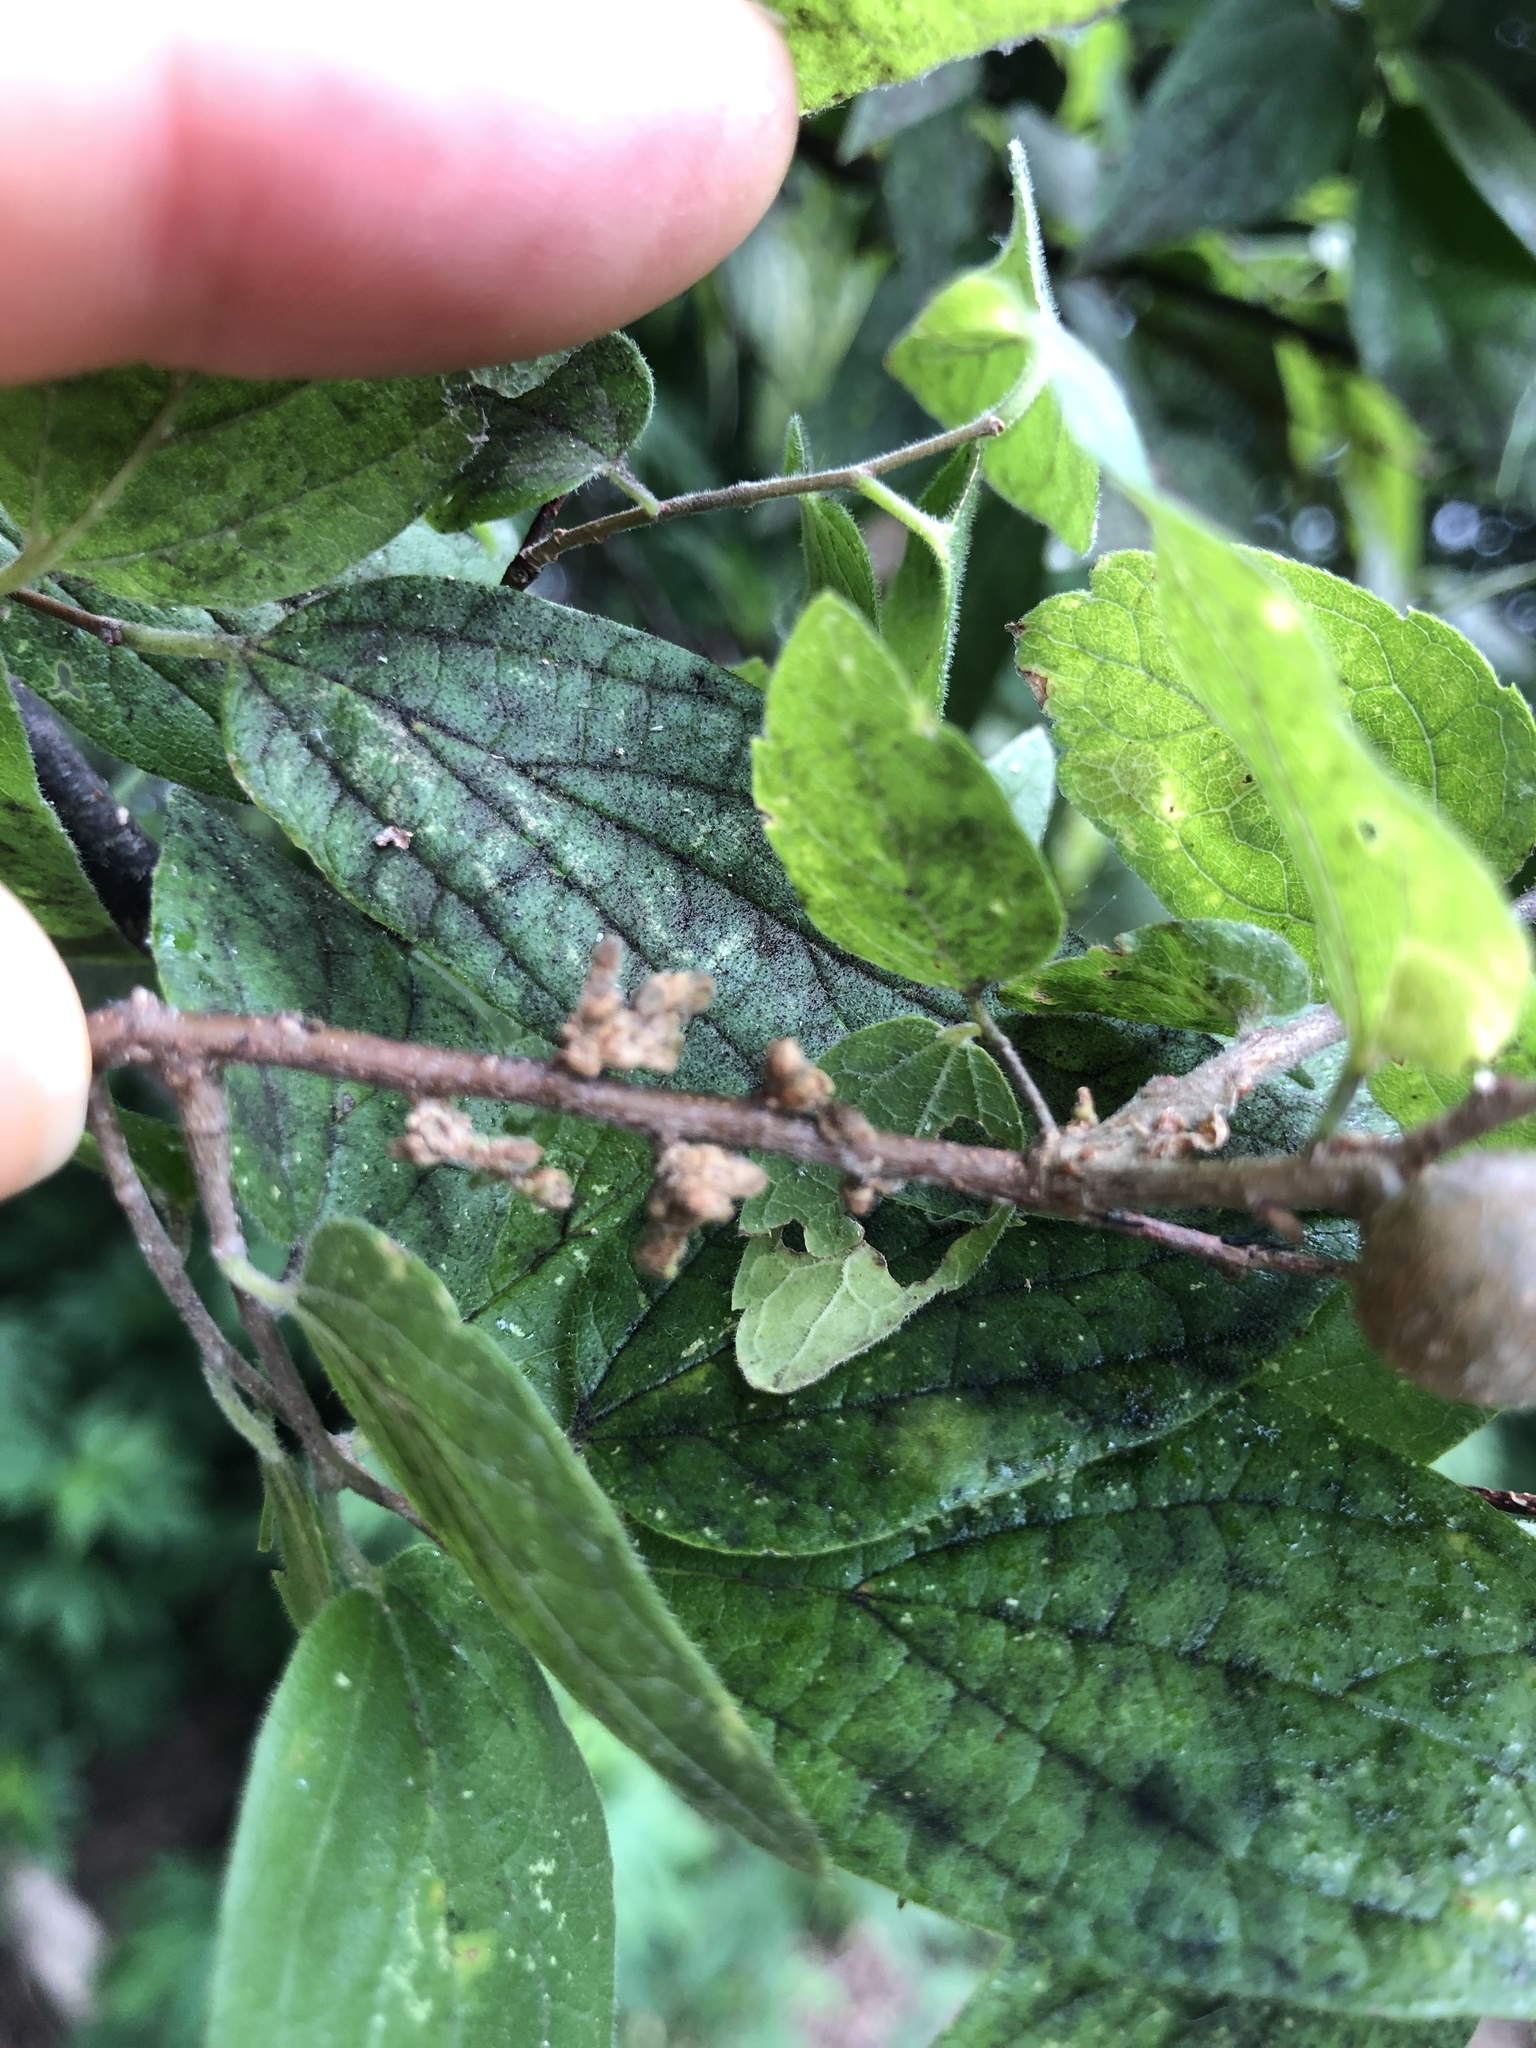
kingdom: Animalia
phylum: Arthropoda
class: Arachnida
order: Trombidiformes
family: Eriophyidae
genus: Aceria
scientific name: Aceria
